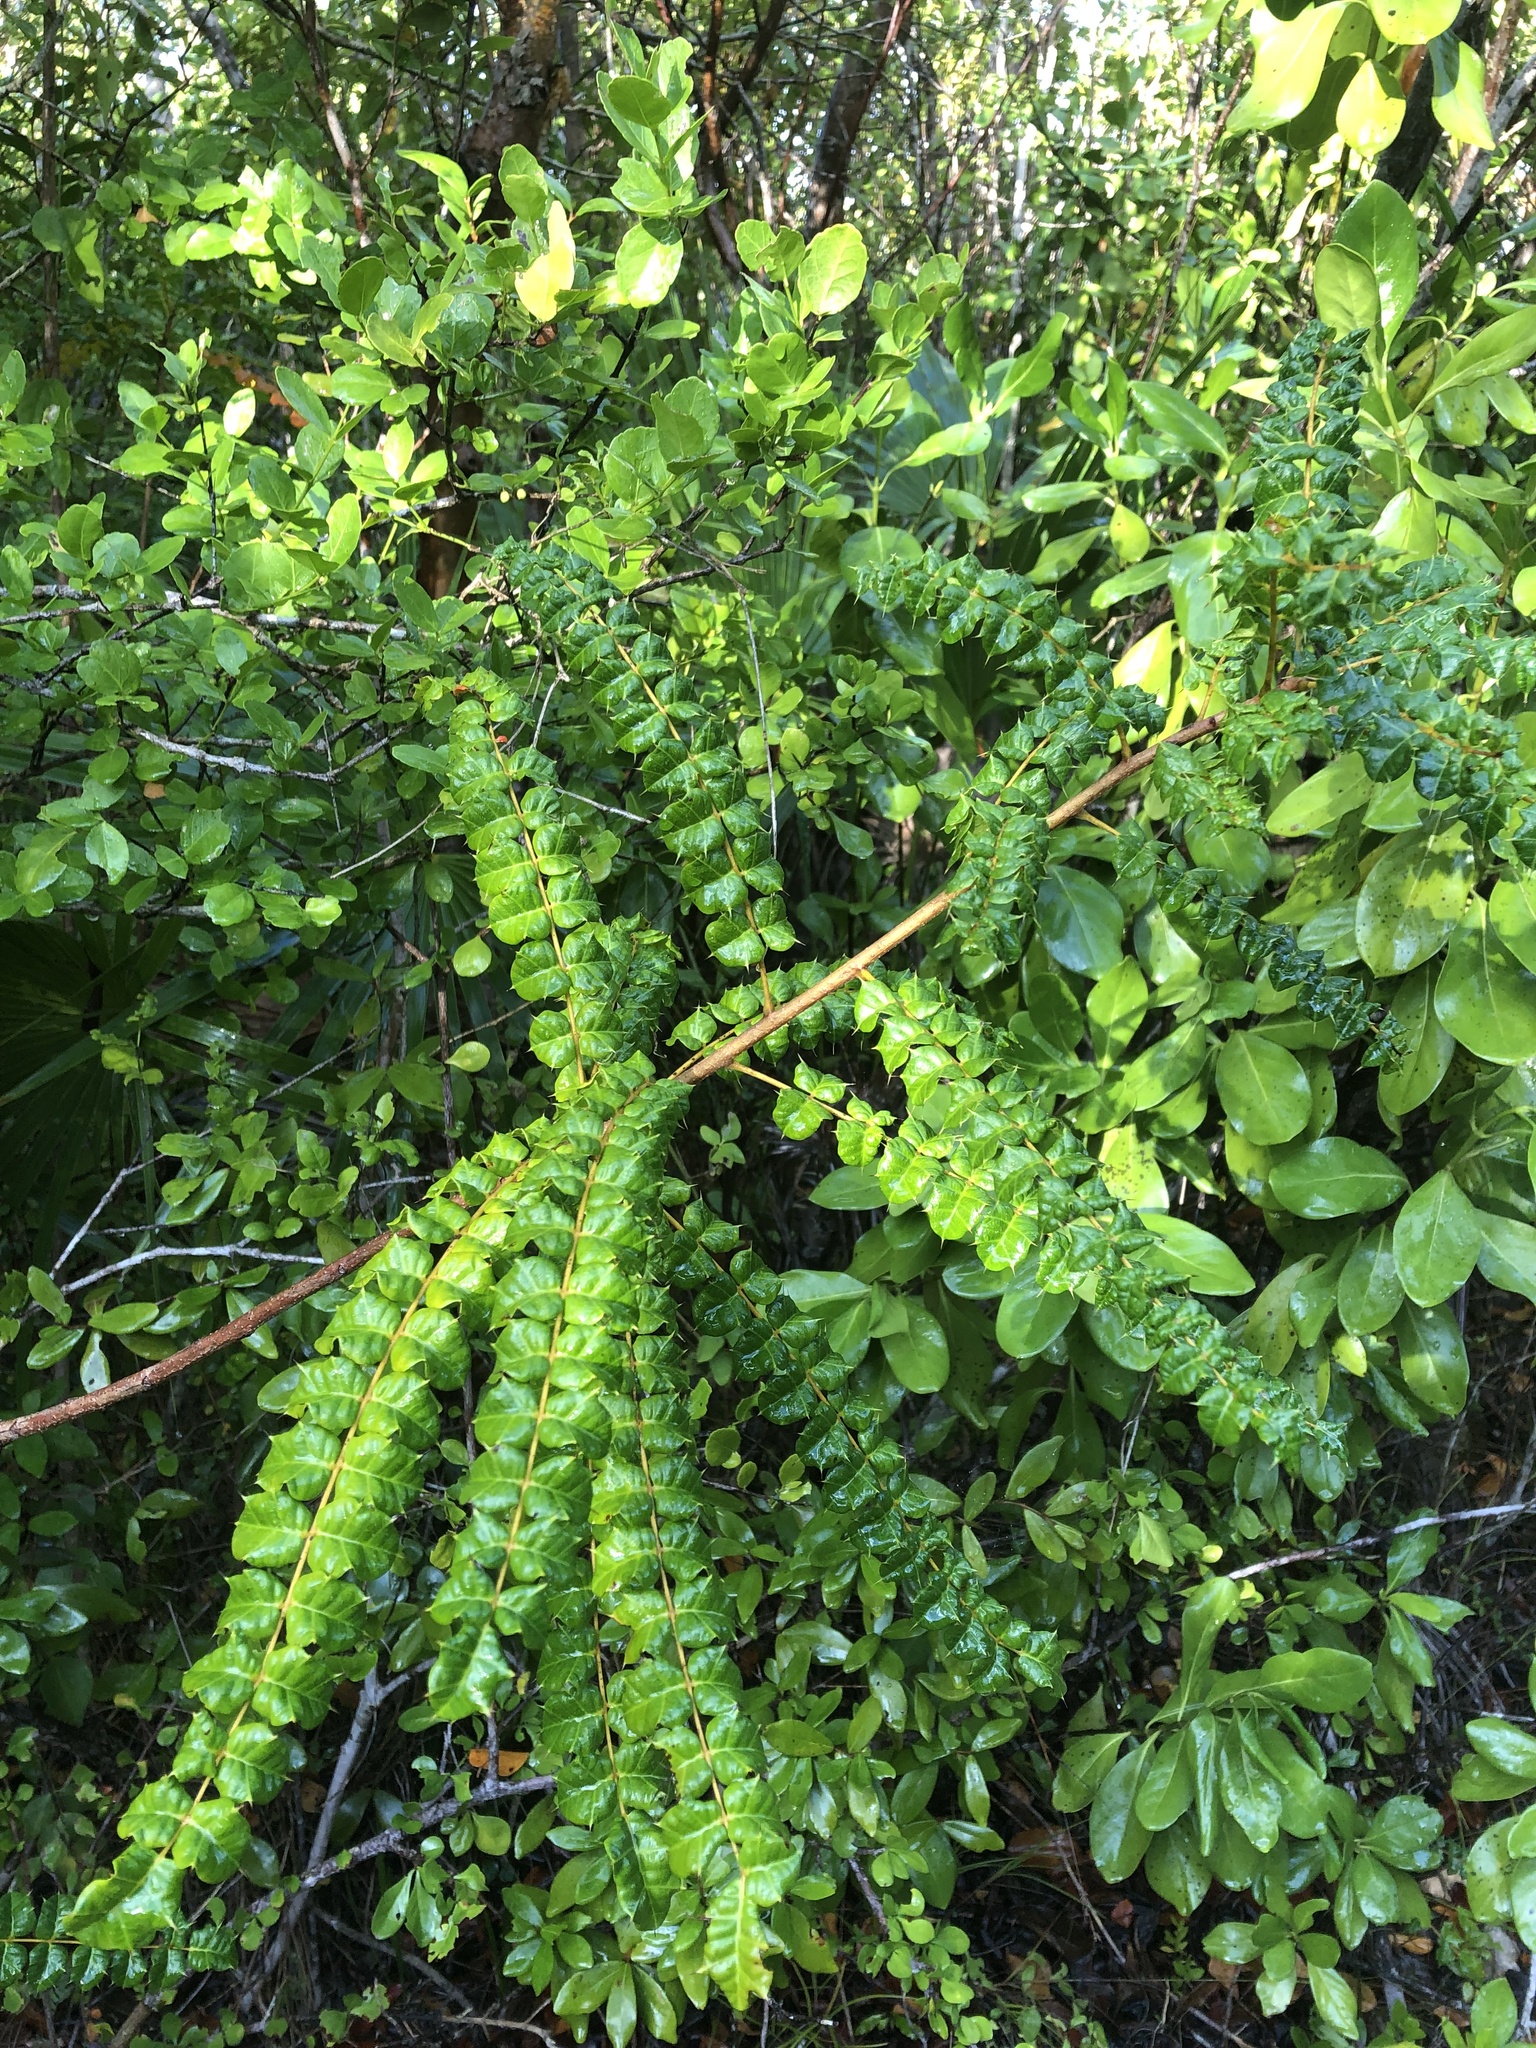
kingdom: Plantae
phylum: Tracheophyta
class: Magnoliopsida
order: Sapindales
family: Anacardiaceae
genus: Comocladia
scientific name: Comocladia dodonaea
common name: Poison ash
